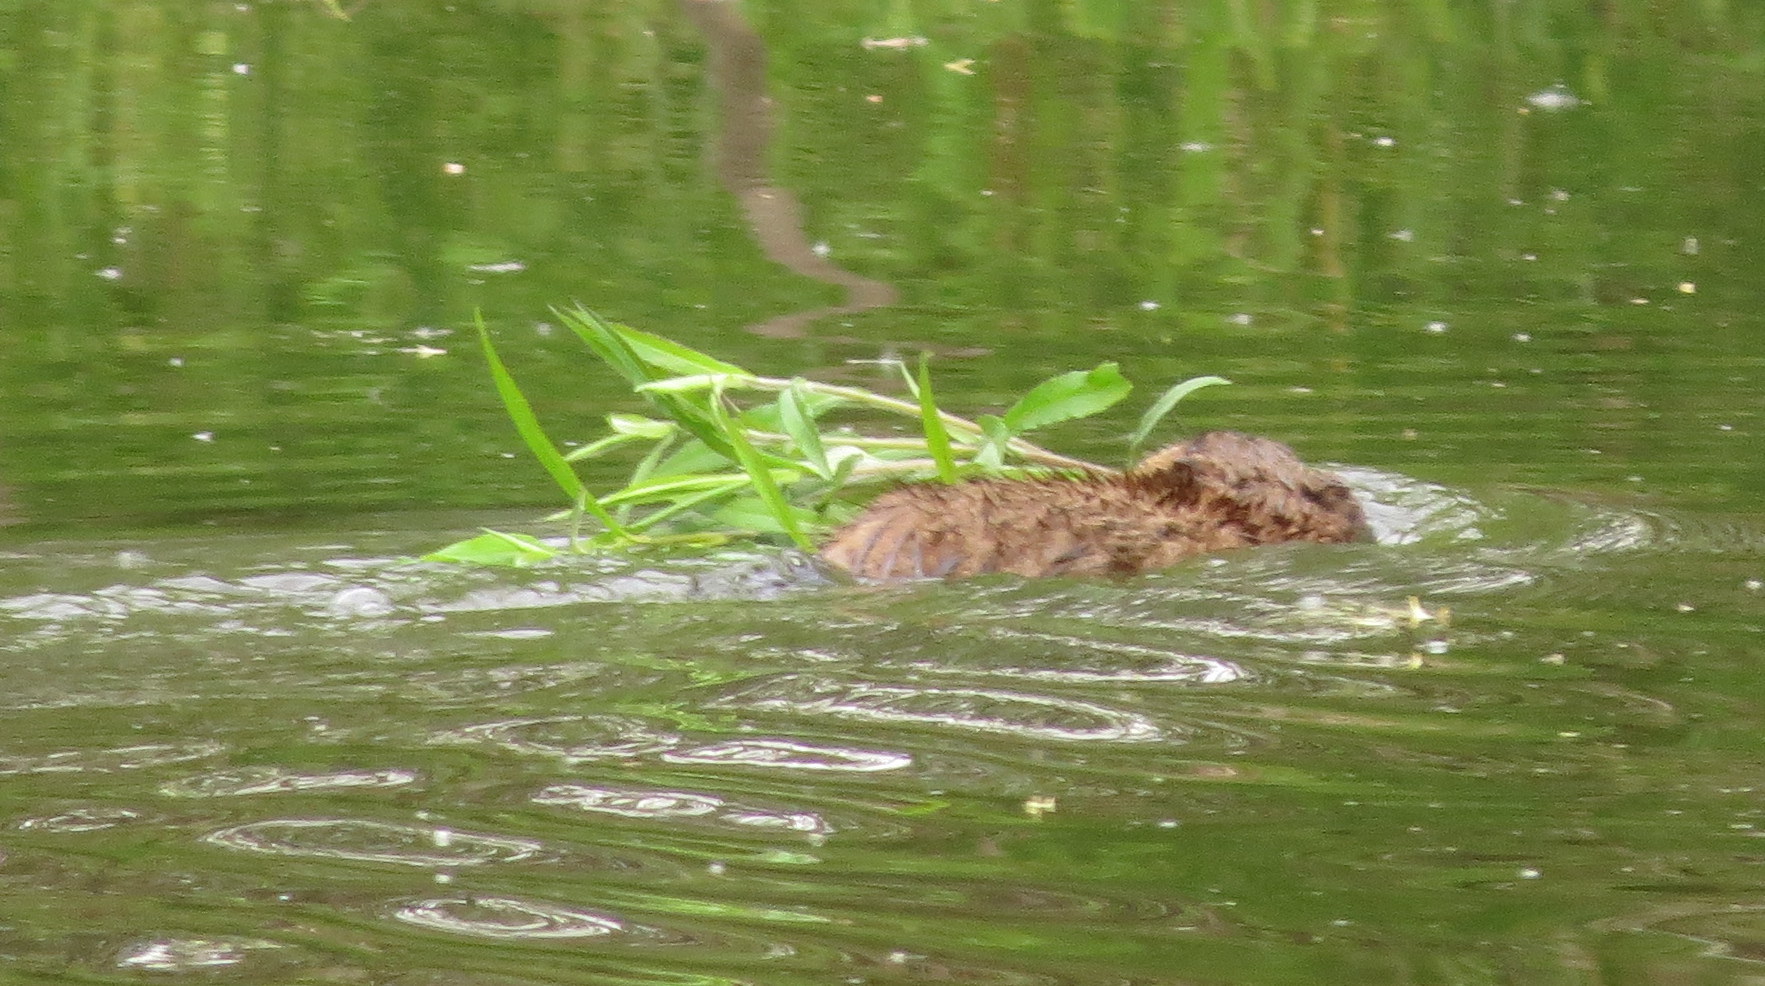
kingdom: Animalia
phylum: Chordata
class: Mammalia
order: Rodentia
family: Cricetidae
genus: Ondatra
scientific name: Ondatra zibethicus
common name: Muskrat
